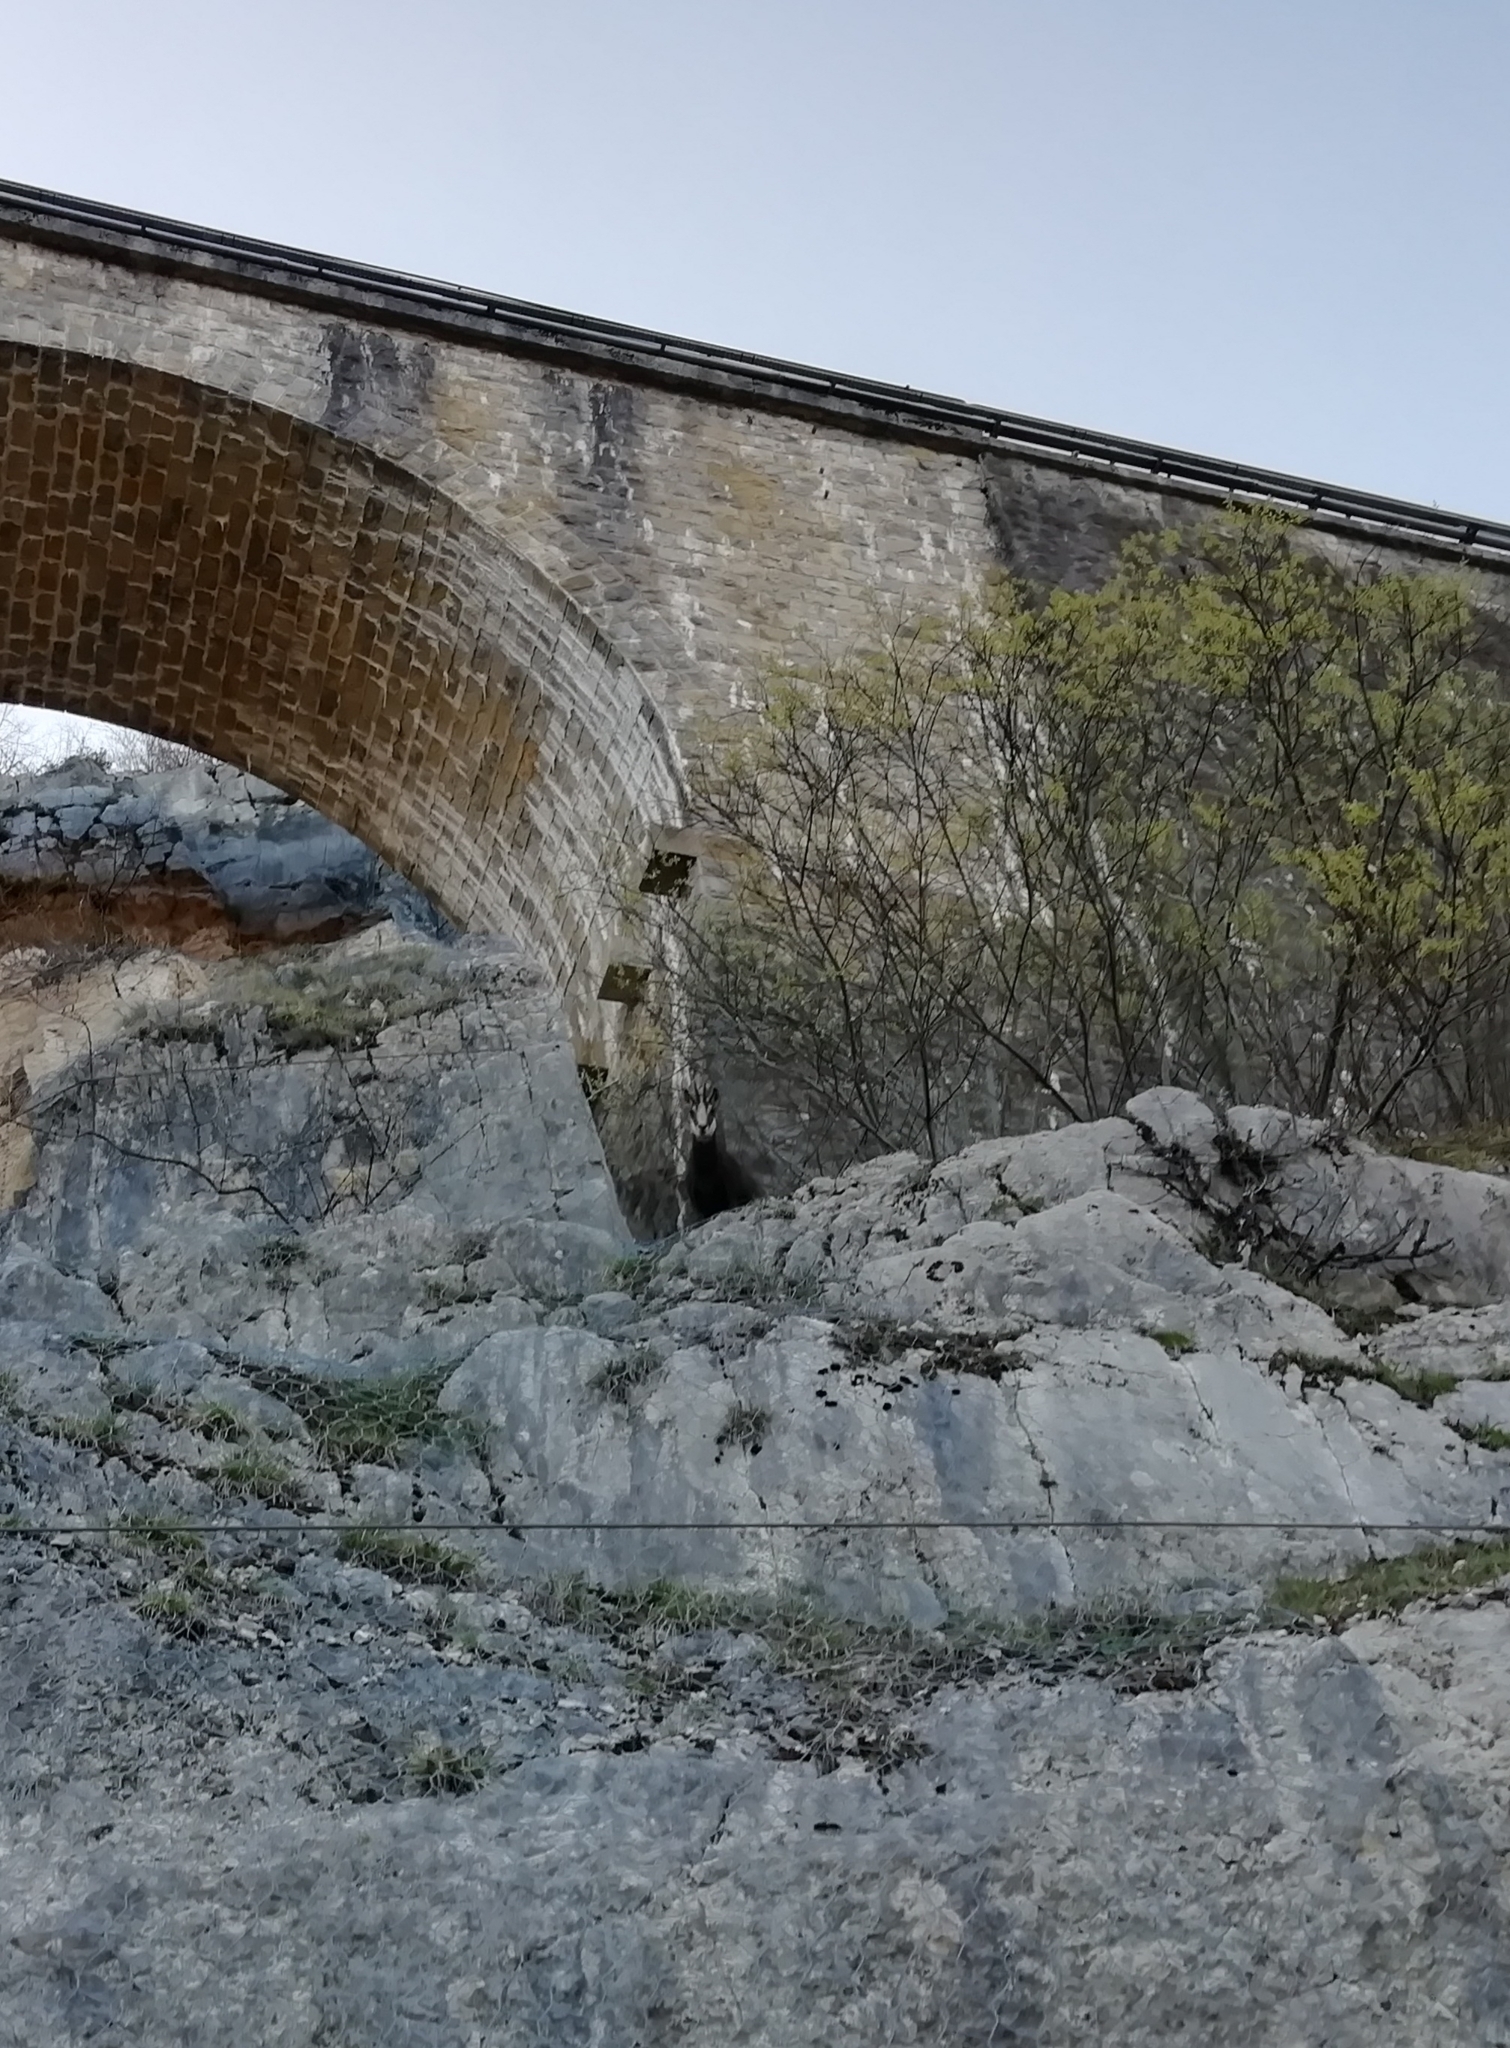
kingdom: Animalia
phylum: Chordata
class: Mammalia
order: Artiodactyla
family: Bovidae
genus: Rupicapra
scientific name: Rupicapra rupicapra
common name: Chamois
